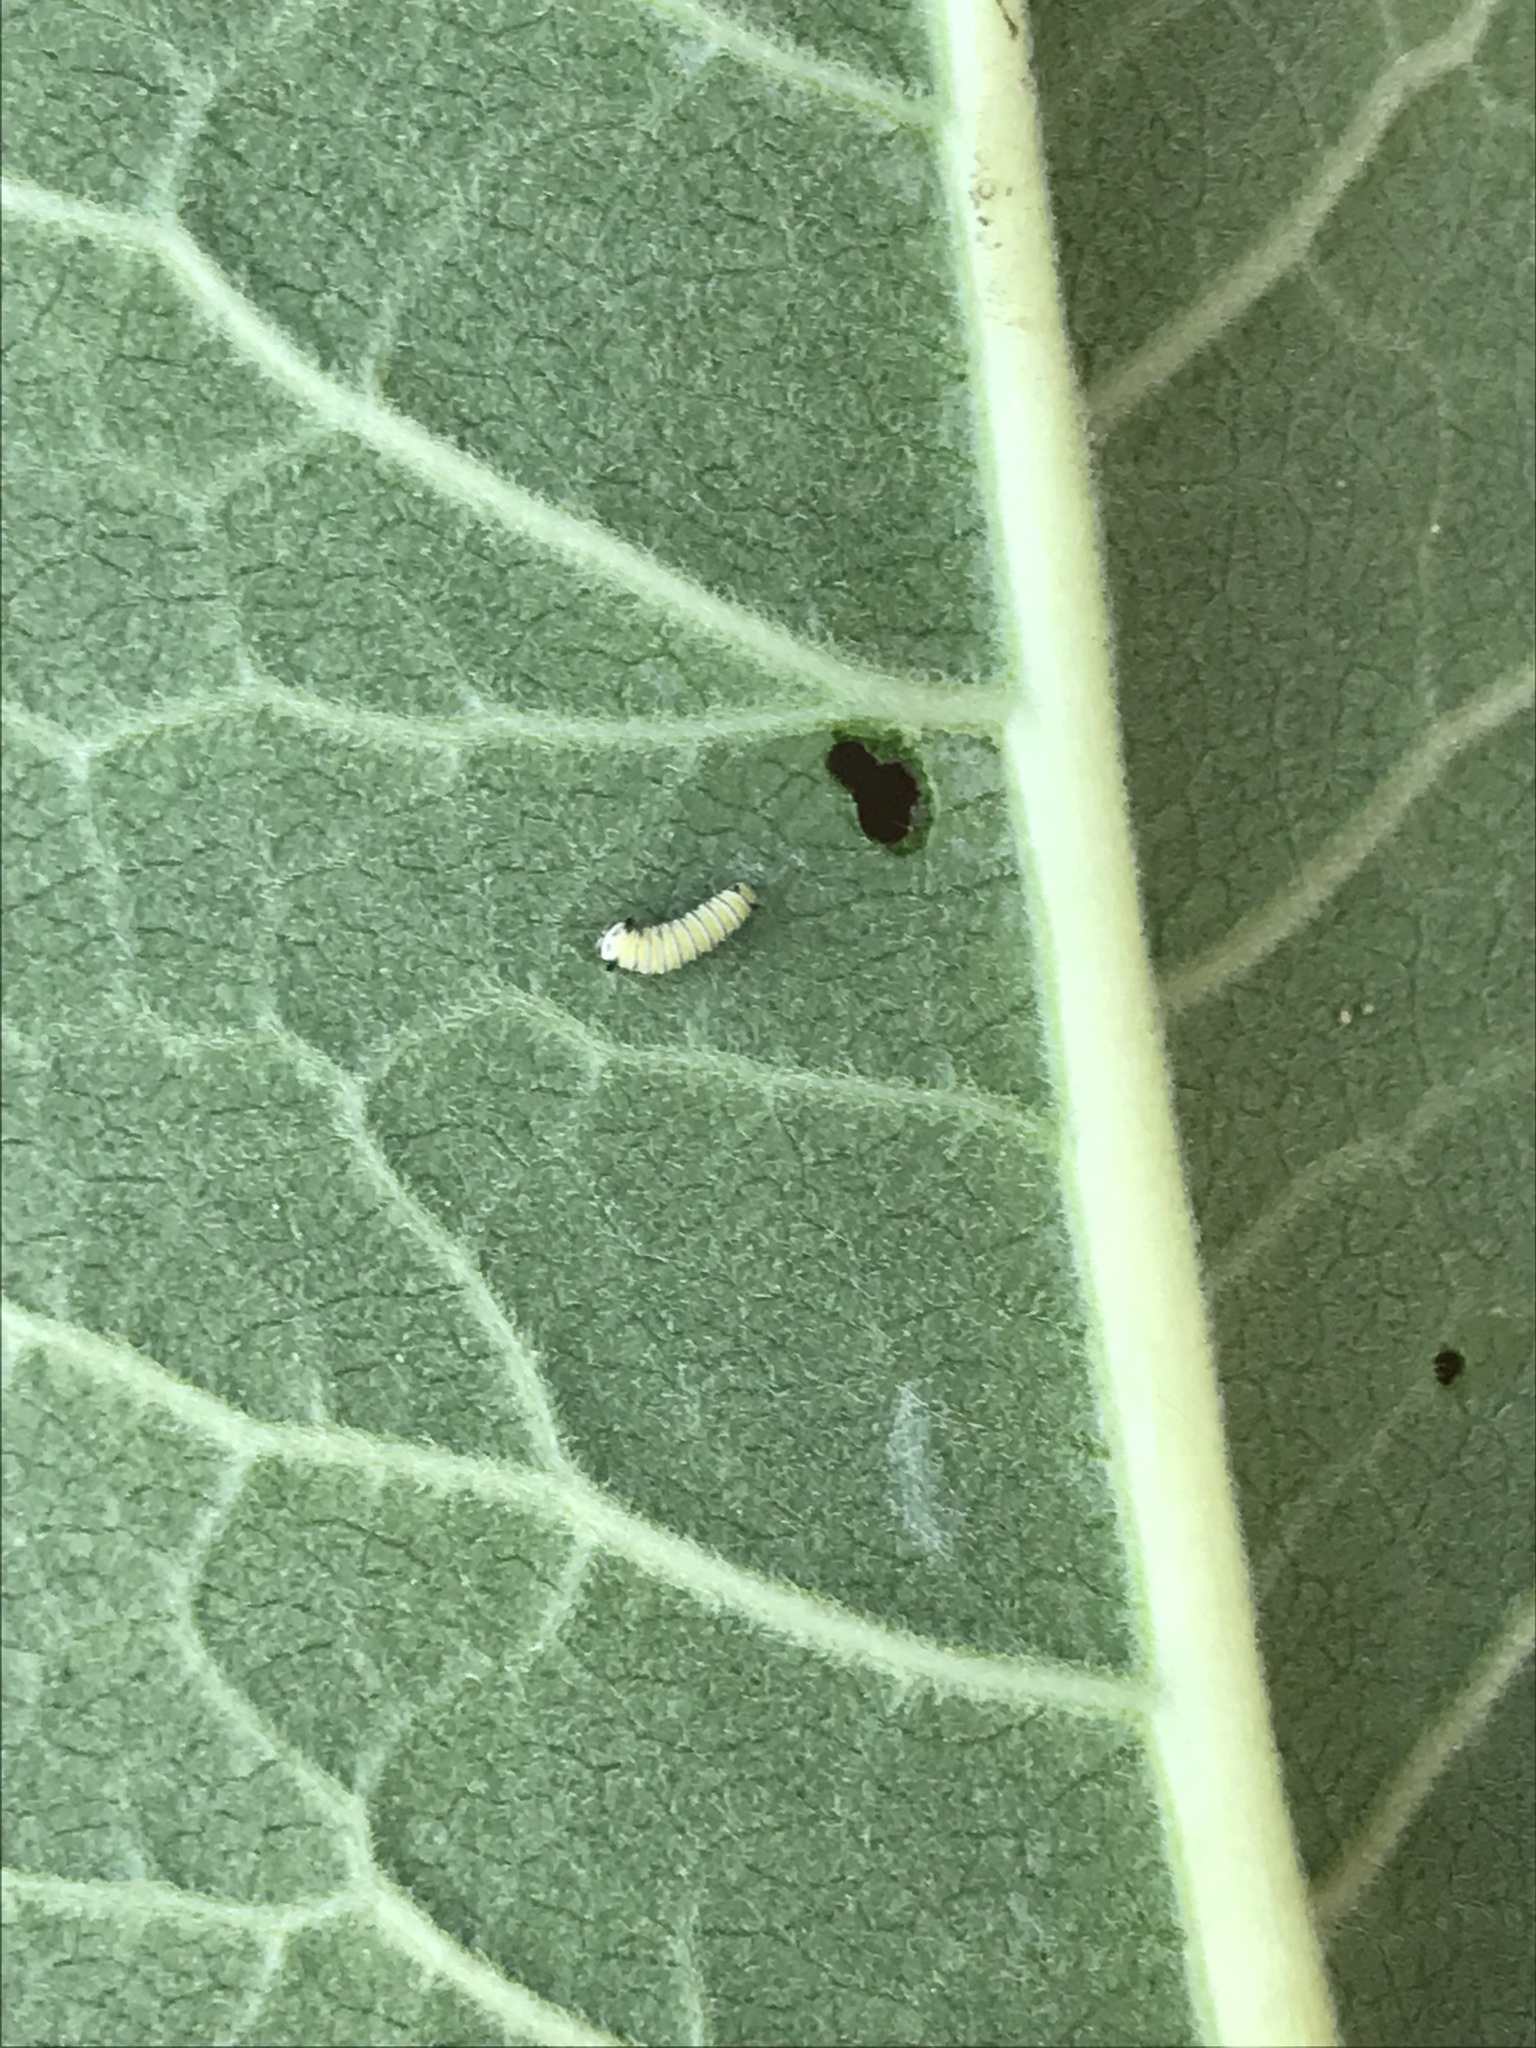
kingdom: Animalia
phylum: Arthropoda
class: Insecta
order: Lepidoptera
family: Nymphalidae
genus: Danaus
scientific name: Danaus plexippus
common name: Monarch
